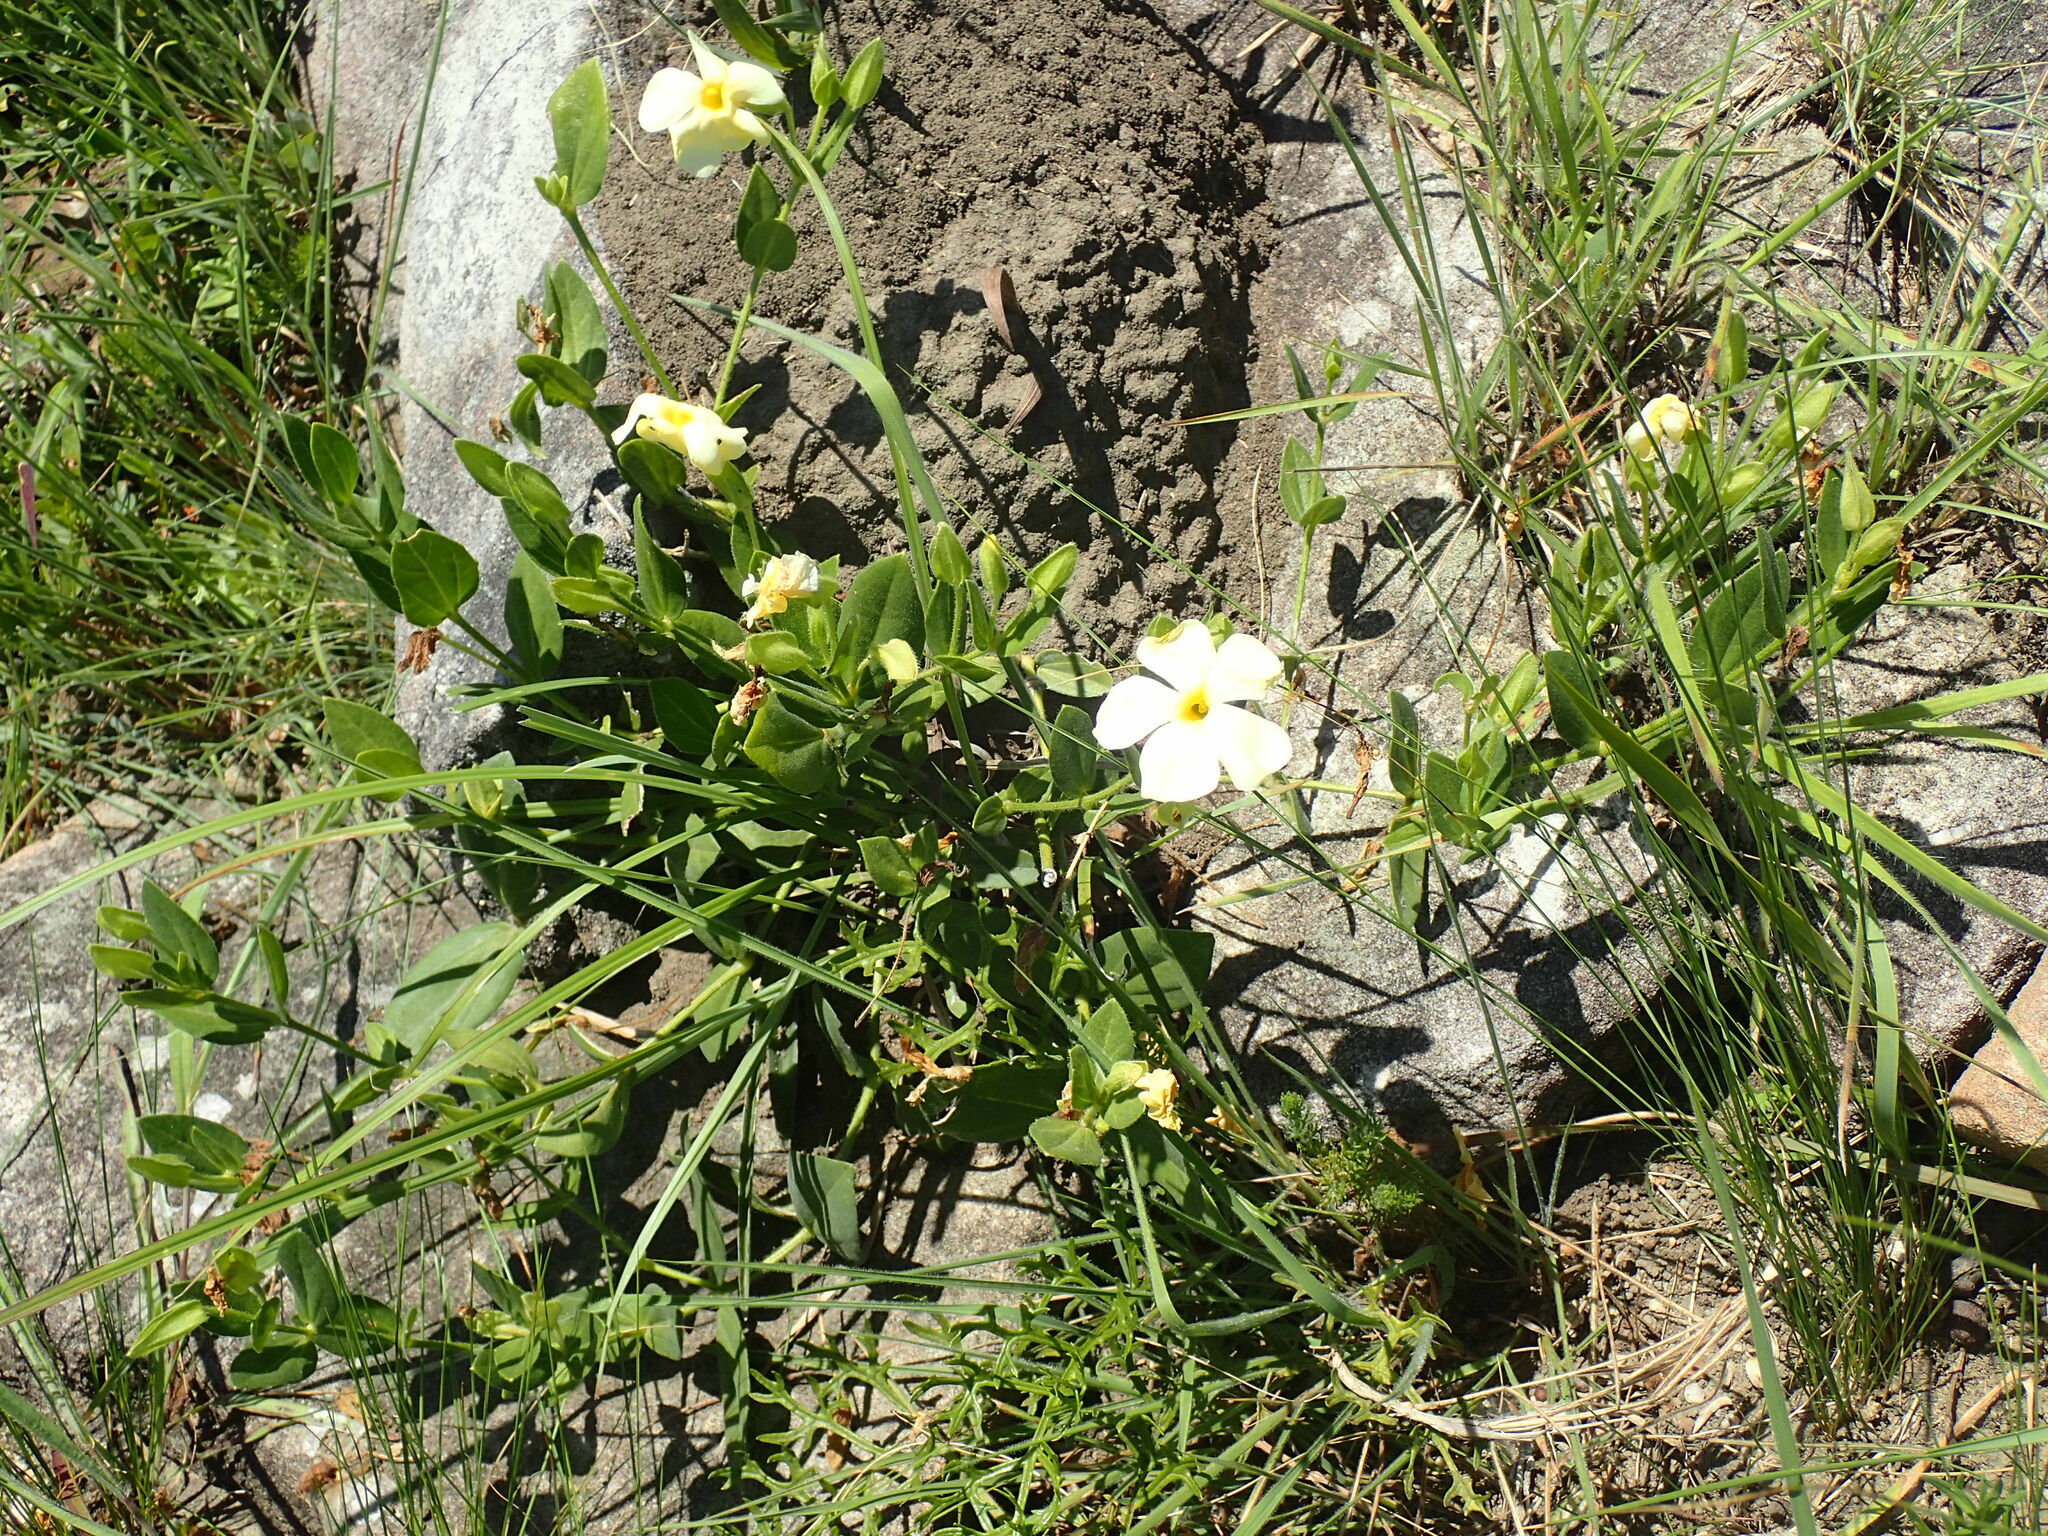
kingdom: Plantae
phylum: Tracheophyta
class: Magnoliopsida
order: Lamiales
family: Acanthaceae
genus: Thunbergia
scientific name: Thunbergia atriplicifolia
